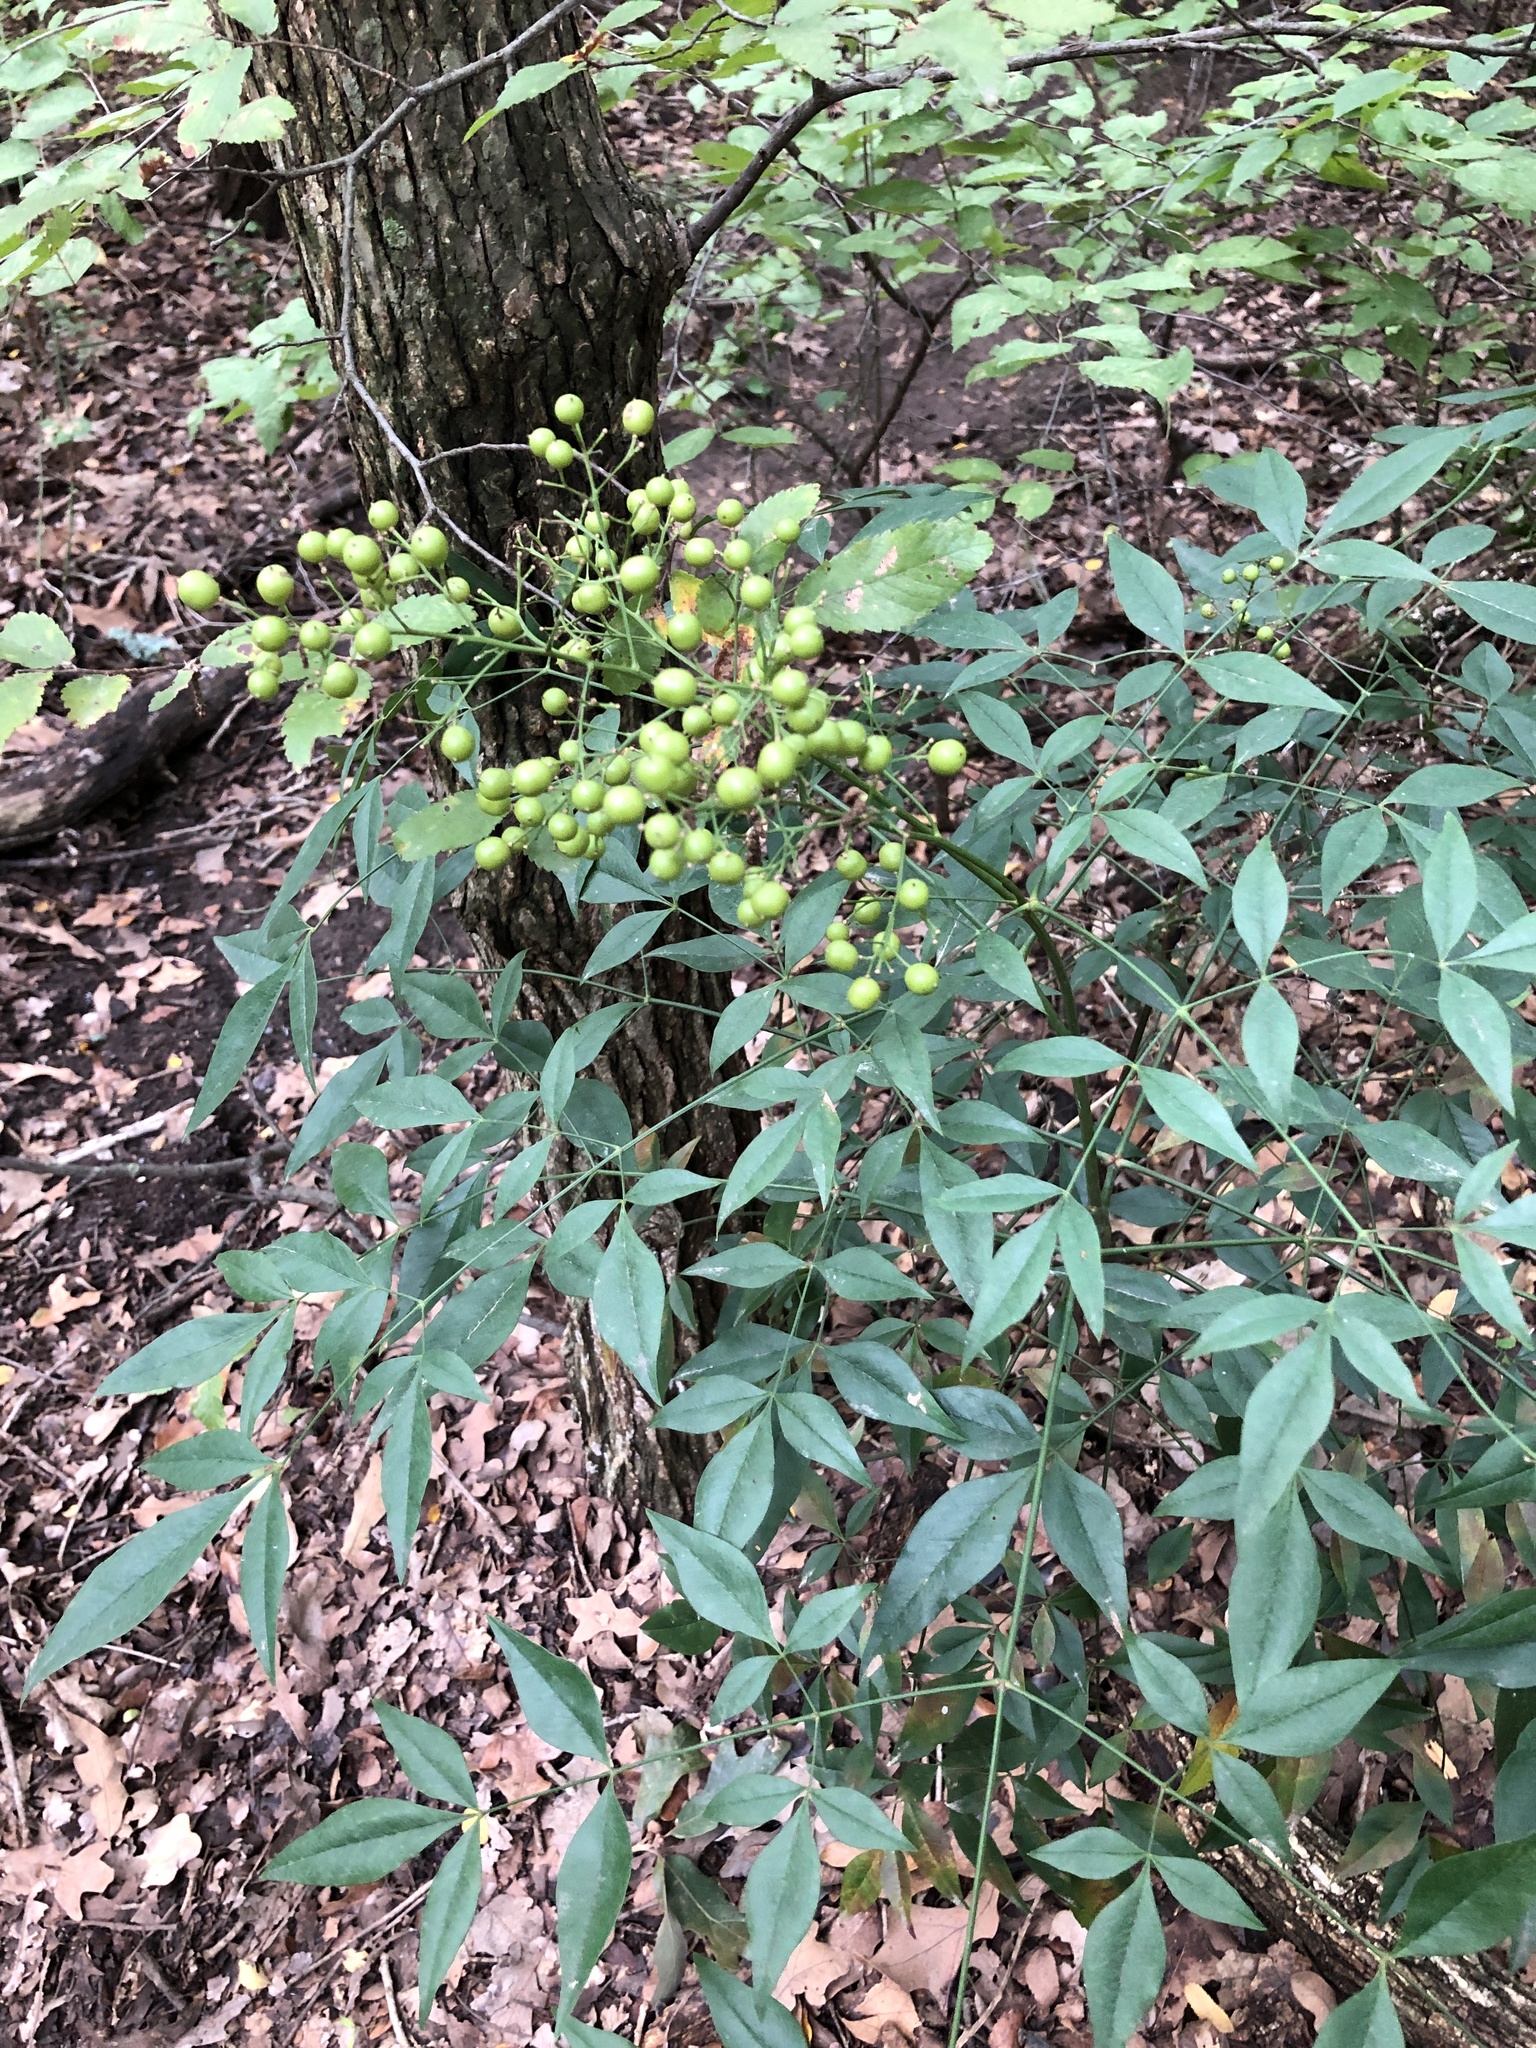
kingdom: Plantae
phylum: Tracheophyta
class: Magnoliopsida
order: Ranunculales
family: Berberidaceae
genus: Nandina
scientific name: Nandina domestica
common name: Sacred bamboo
